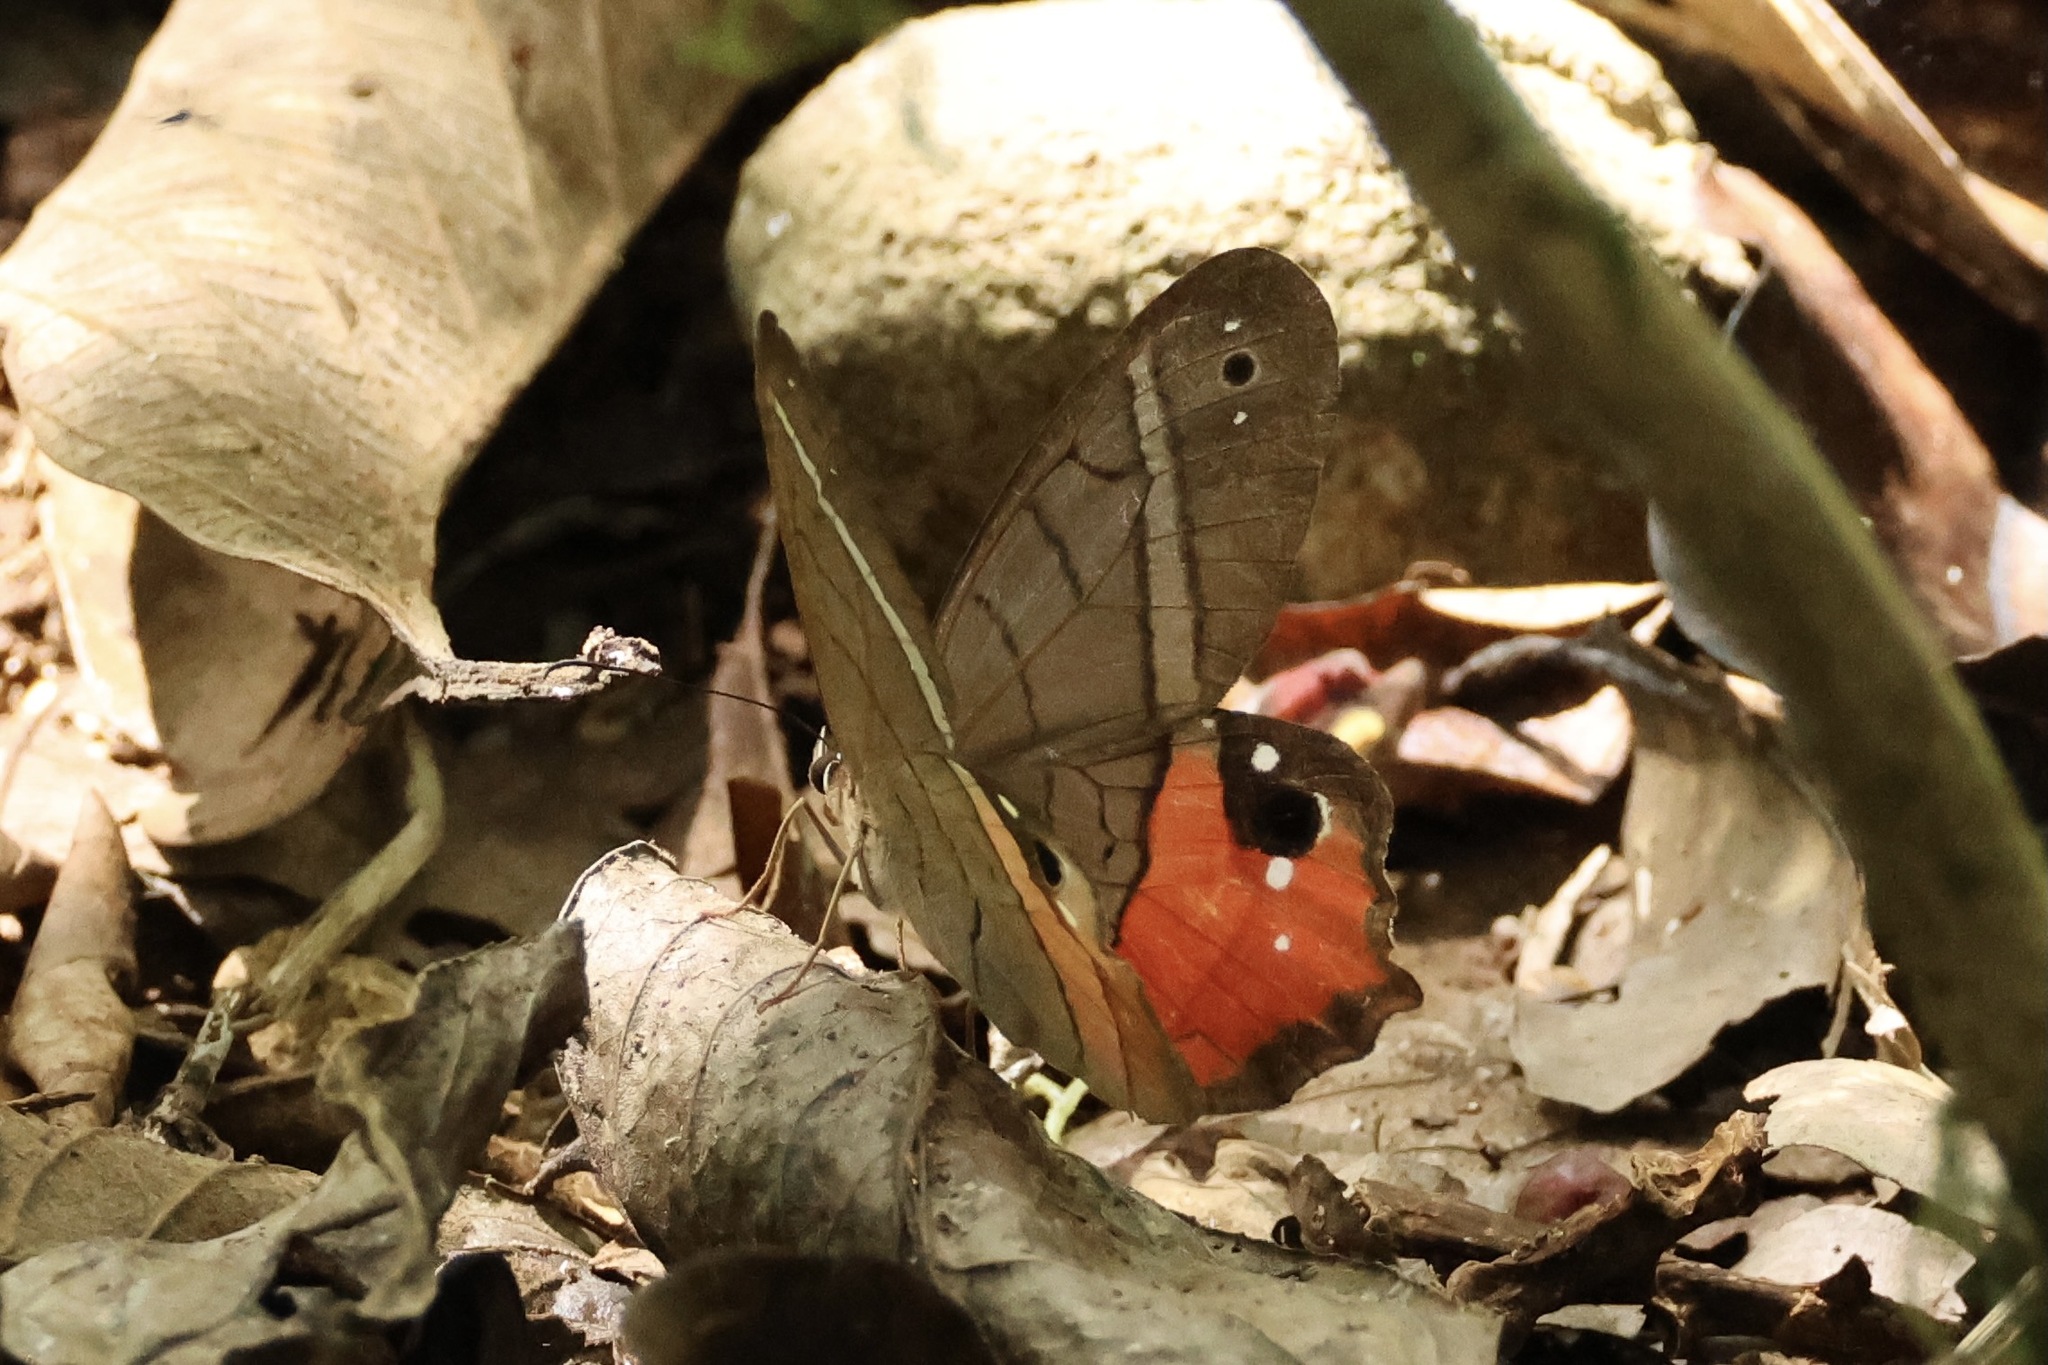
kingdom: Animalia
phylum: Arthropoda
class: Insecta
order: Lepidoptera
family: Nymphalidae
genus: Pierella
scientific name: Pierella helvina
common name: Red-washed satyr
